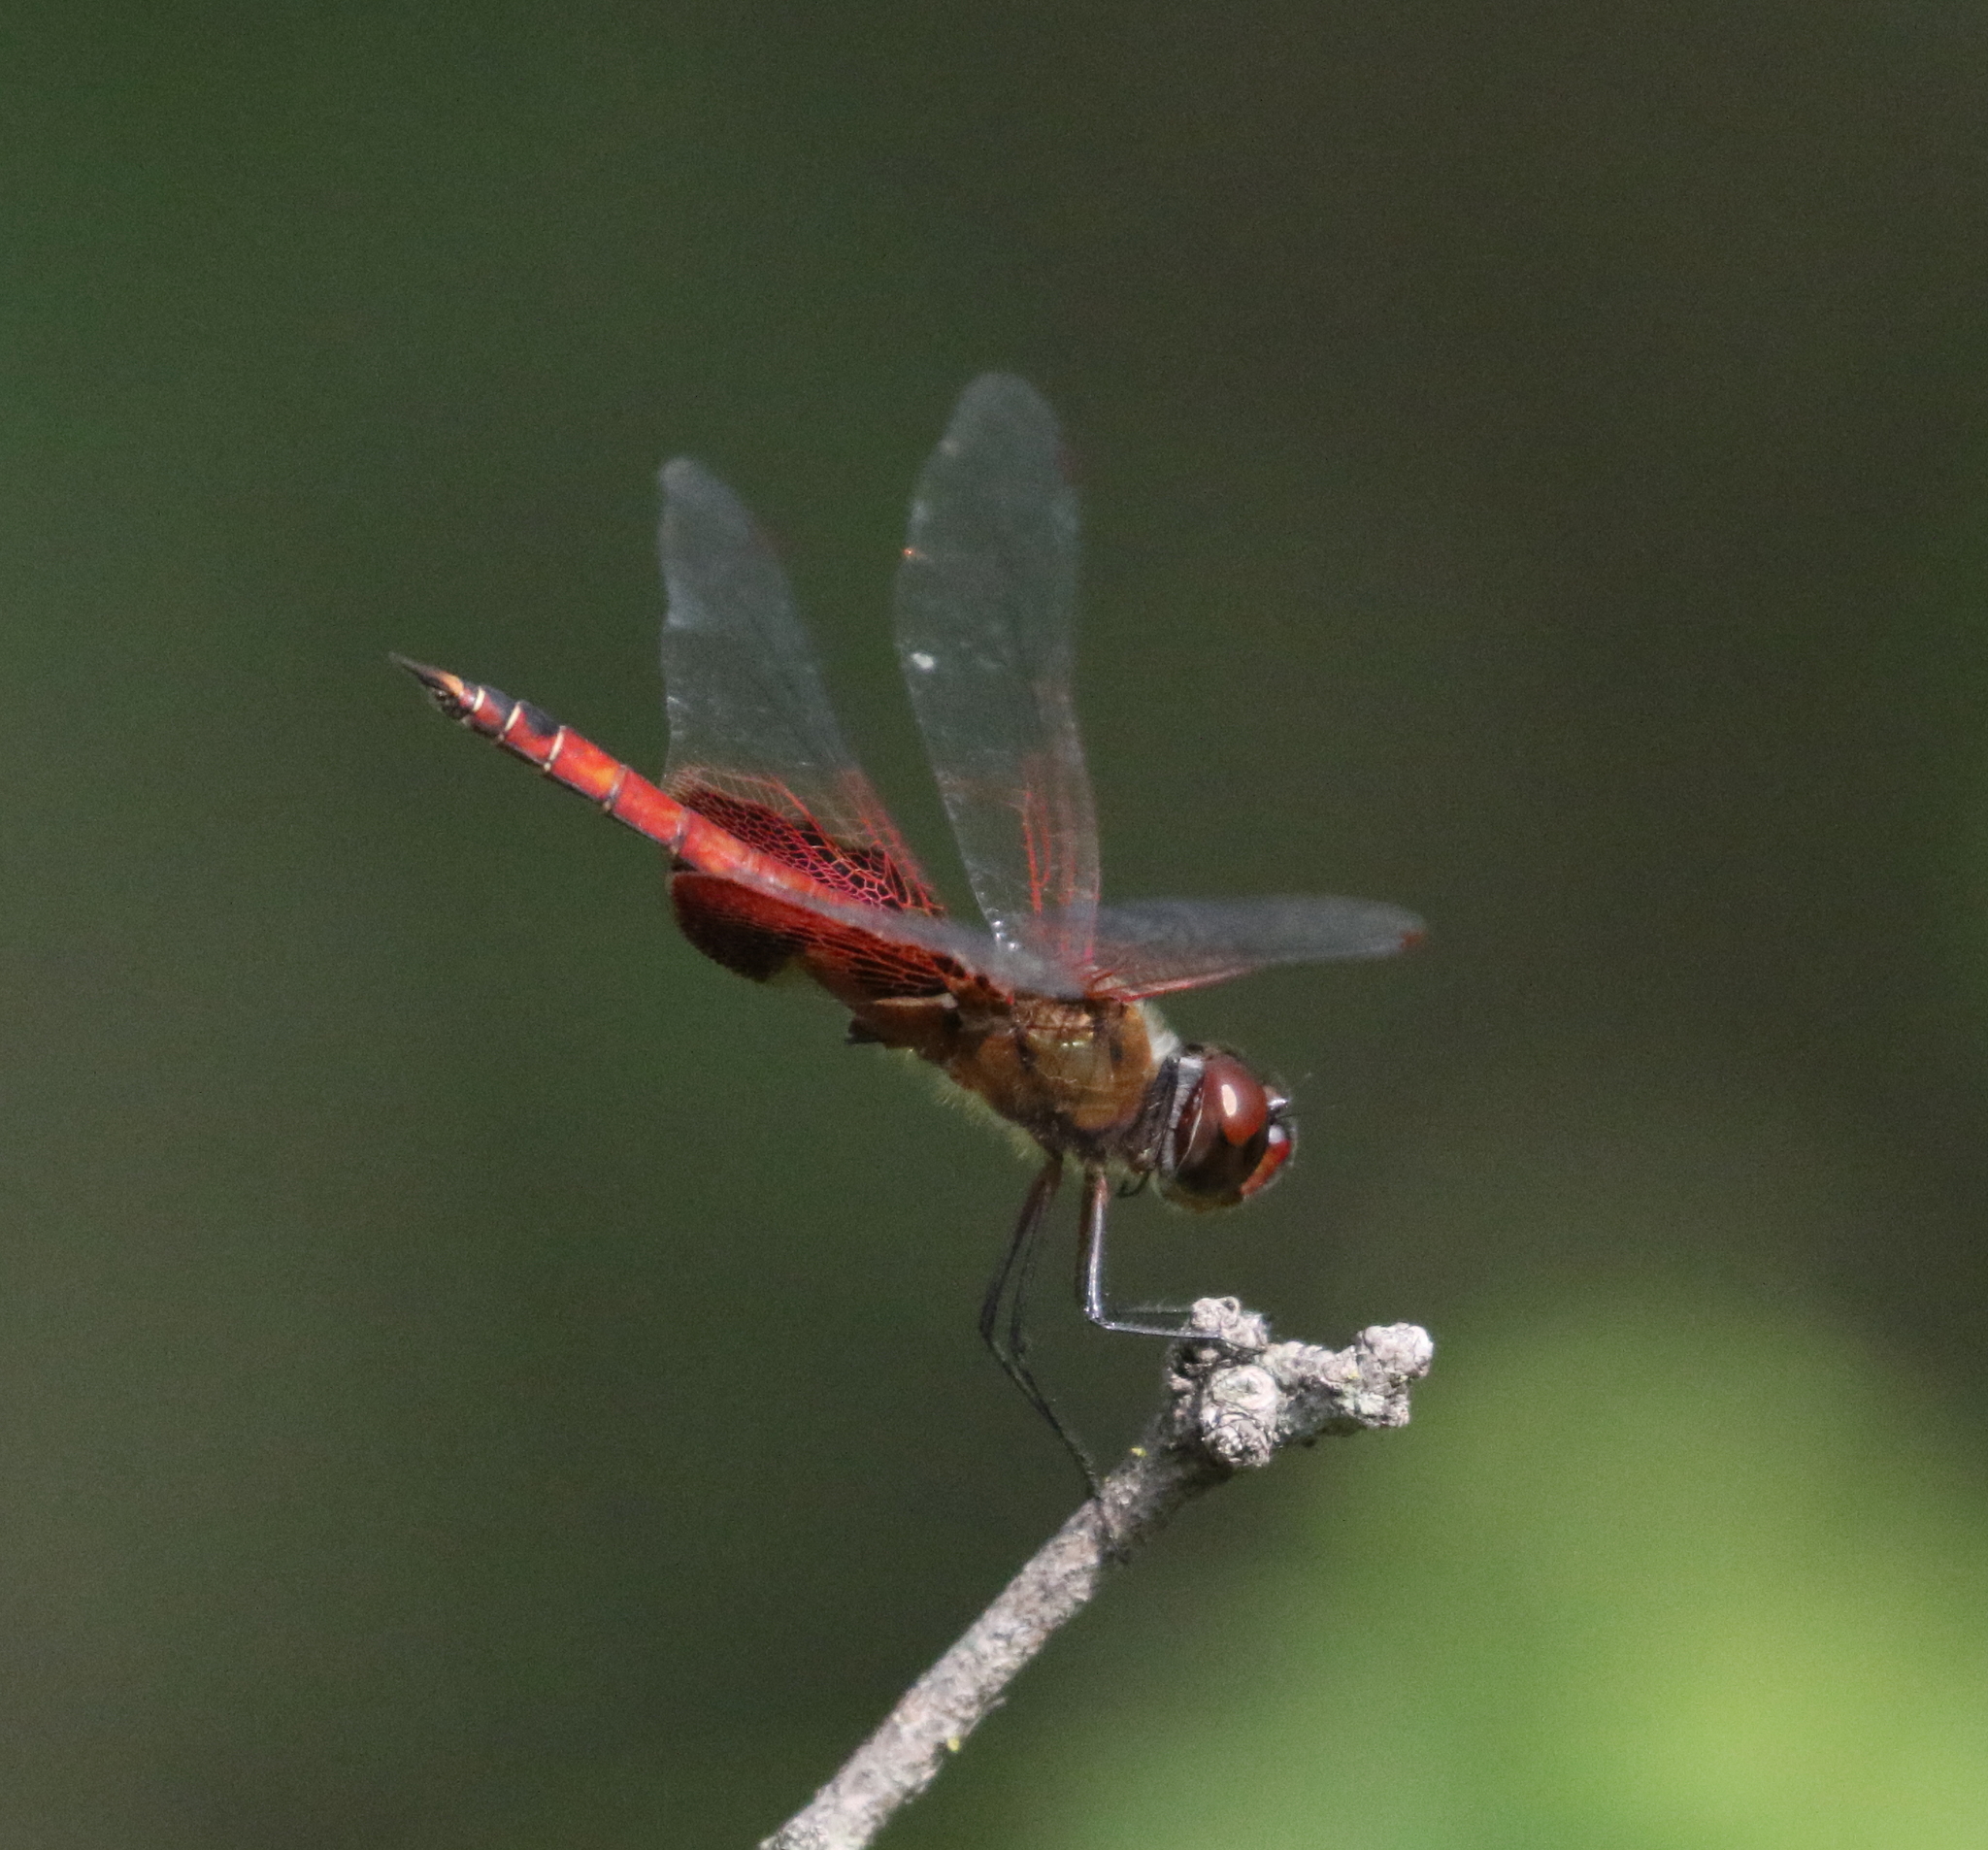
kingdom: Animalia
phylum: Arthropoda
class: Insecta
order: Odonata
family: Libellulidae
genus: Tramea
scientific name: Tramea onusta
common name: Red saddlebags
